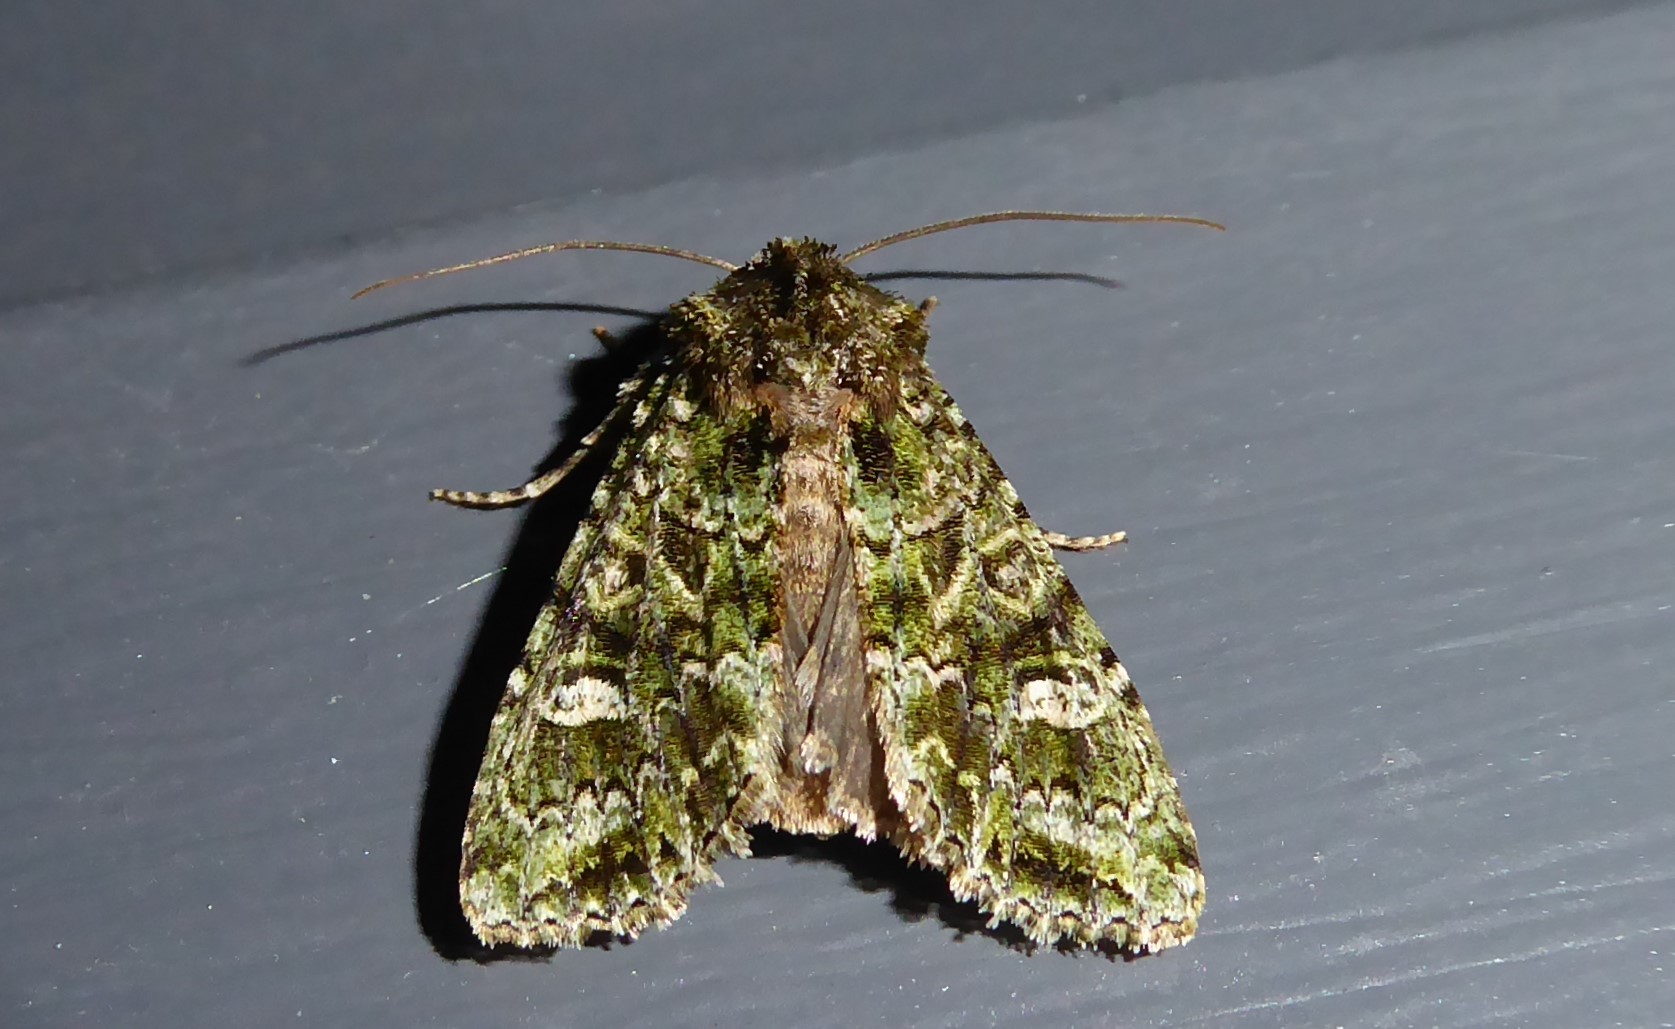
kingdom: Animalia
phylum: Arthropoda
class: Insecta
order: Lepidoptera
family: Noctuidae
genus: Ichneutica
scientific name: Ichneutica
